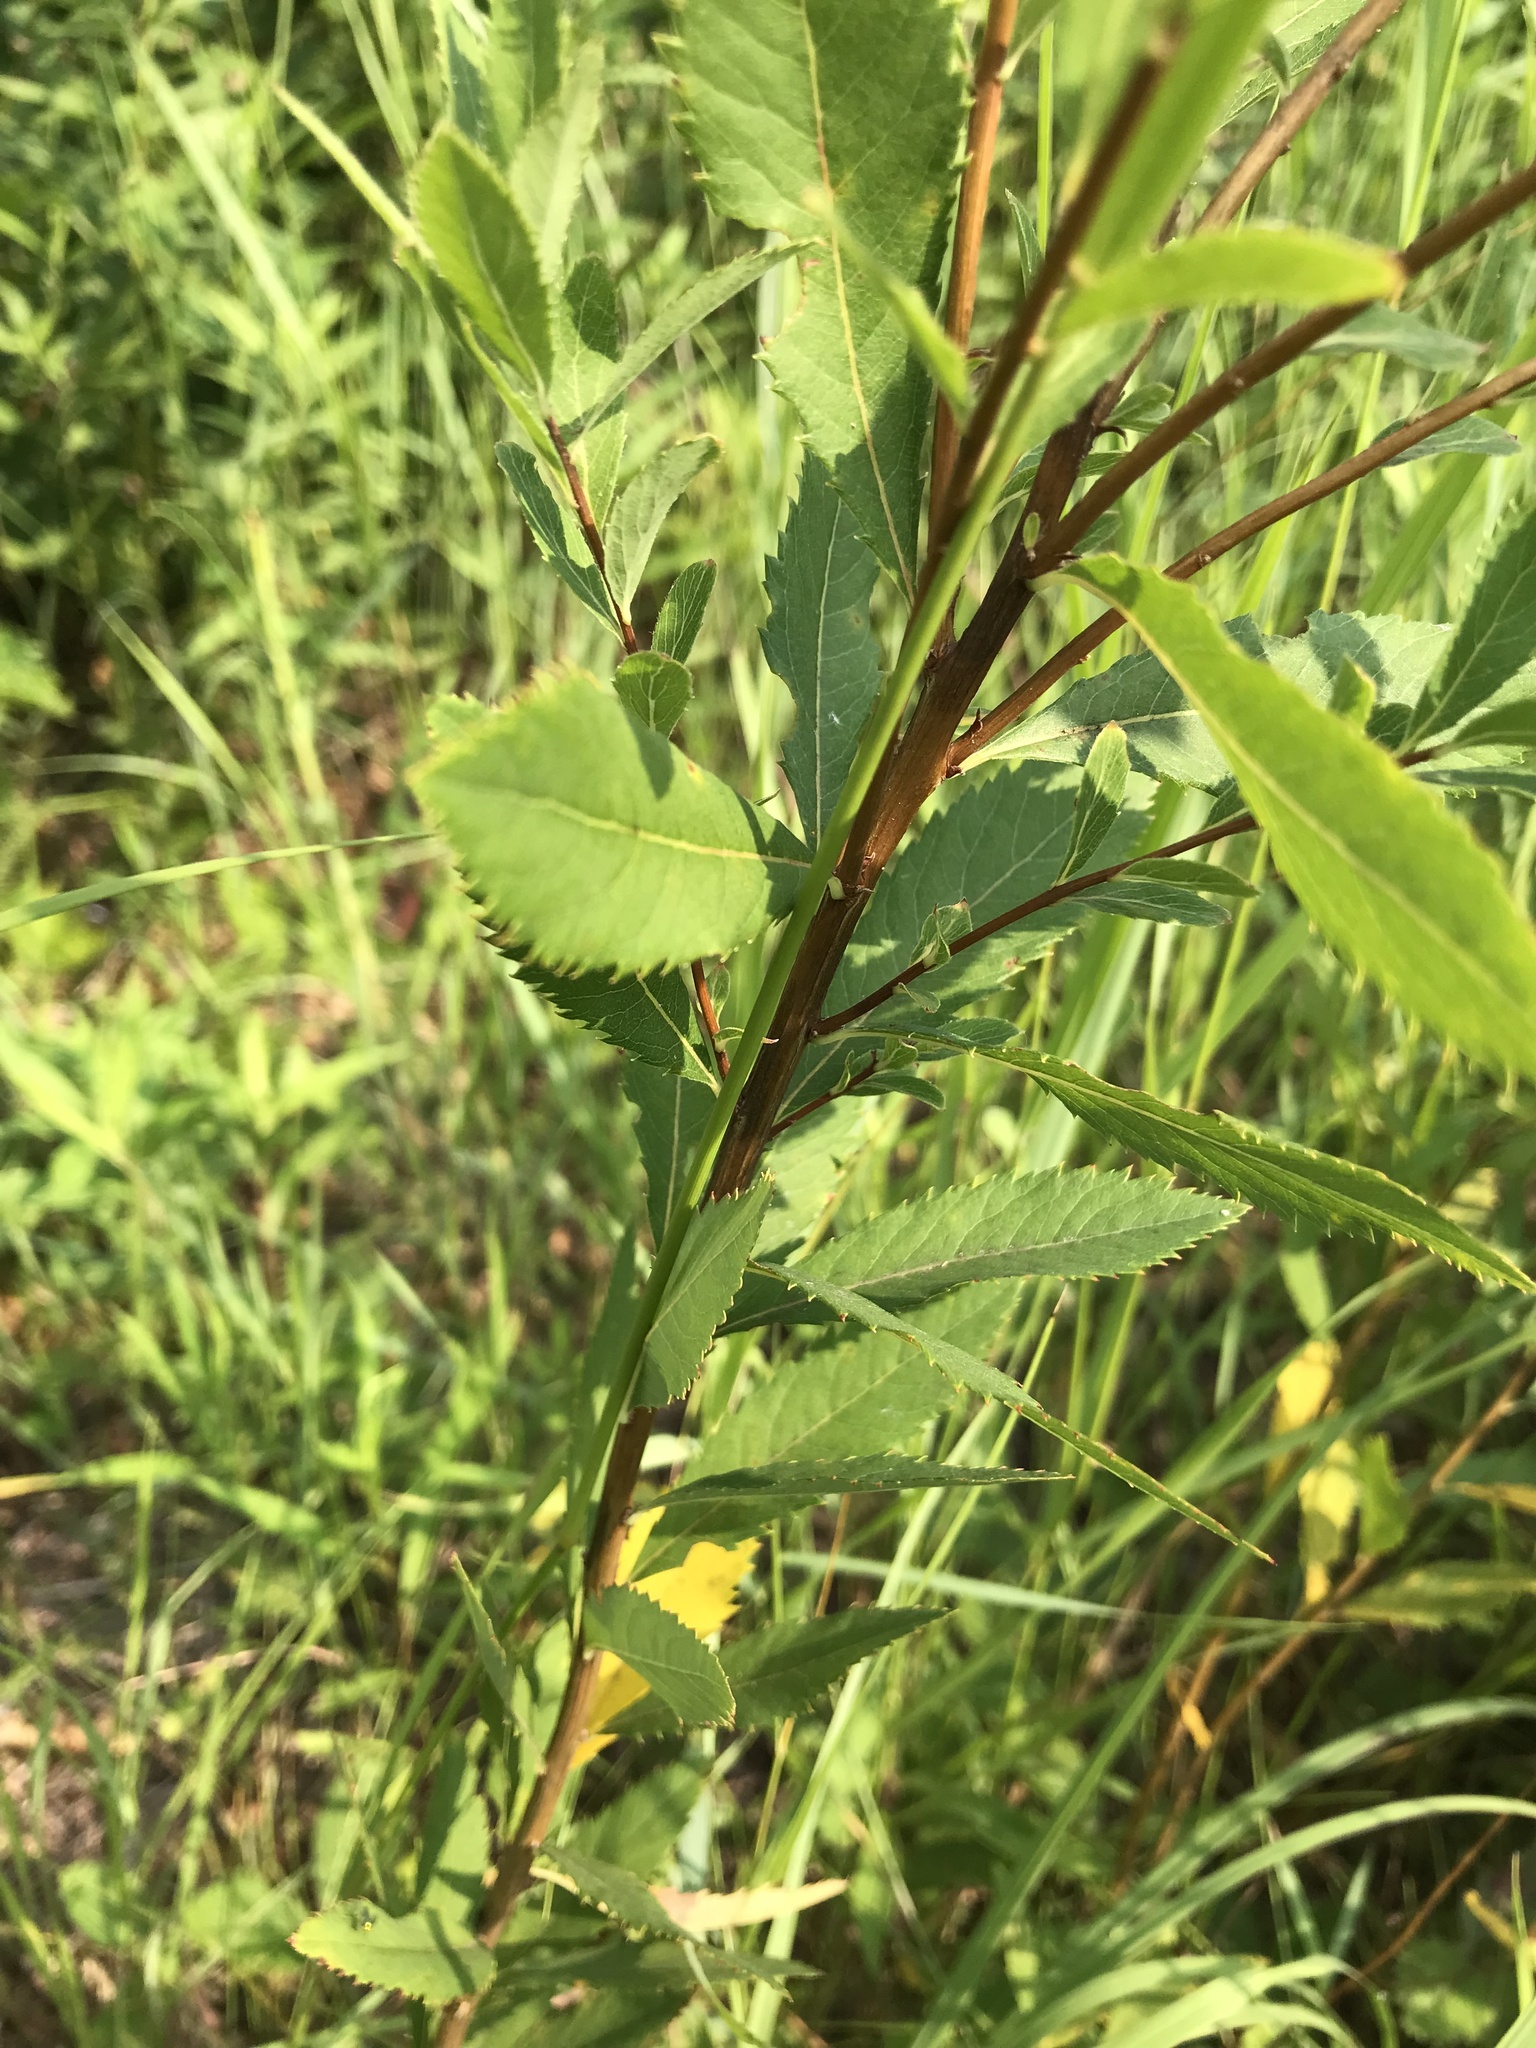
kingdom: Plantae
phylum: Tracheophyta
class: Magnoliopsida
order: Rosales
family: Rosaceae
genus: Spiraea
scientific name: Spiraea alba
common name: Pale bridewort
